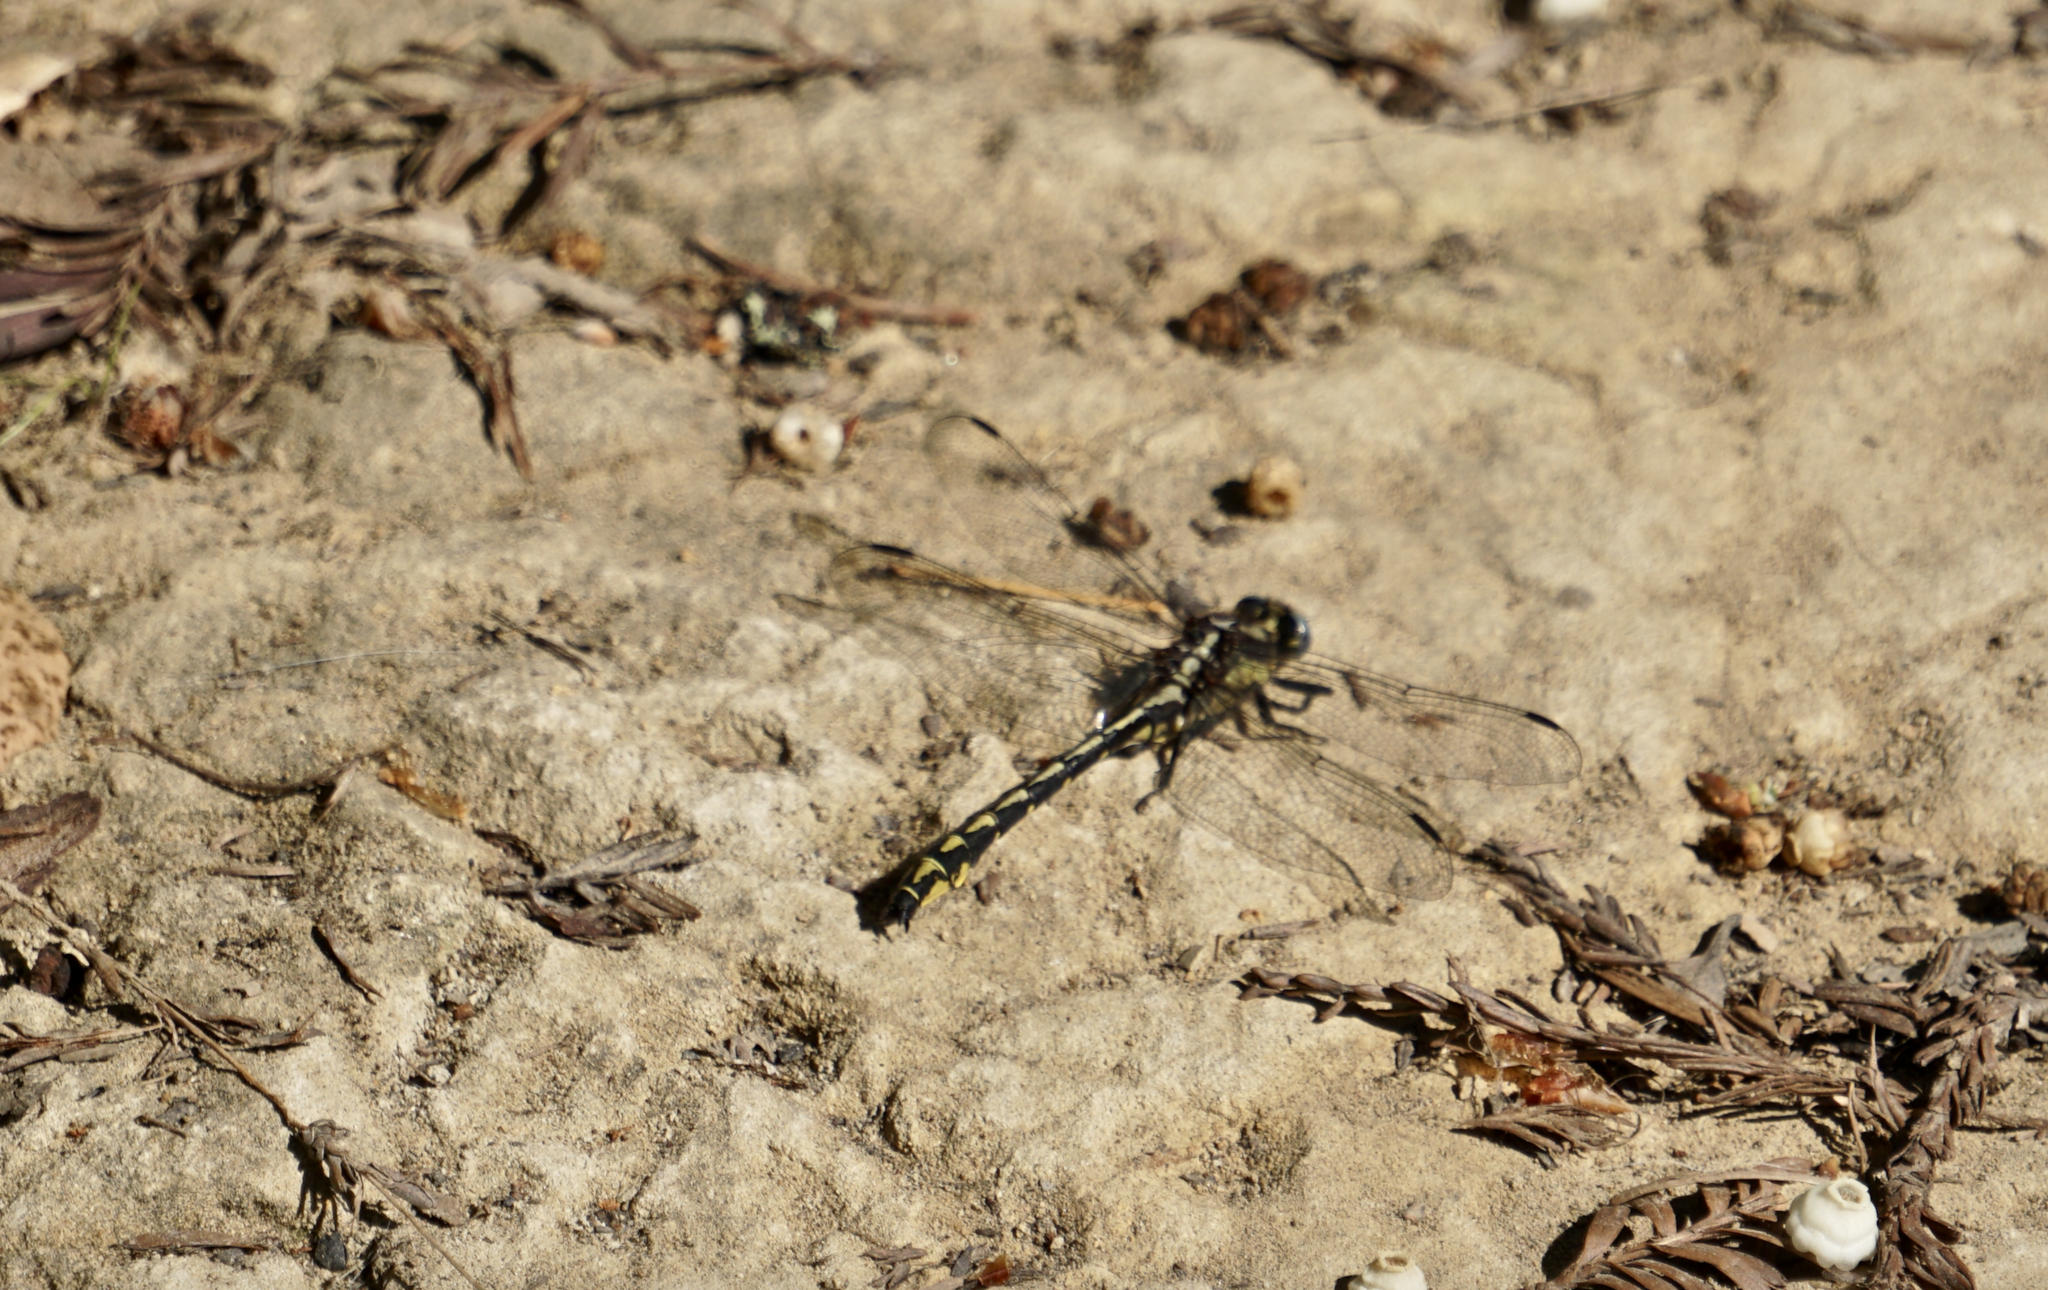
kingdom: Animalia
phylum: Arthropoda
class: Insecta
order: Odonata
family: Gomphidae
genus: Phanogomphus
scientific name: Phanogomphus kurilis
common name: Pacific clubtail
